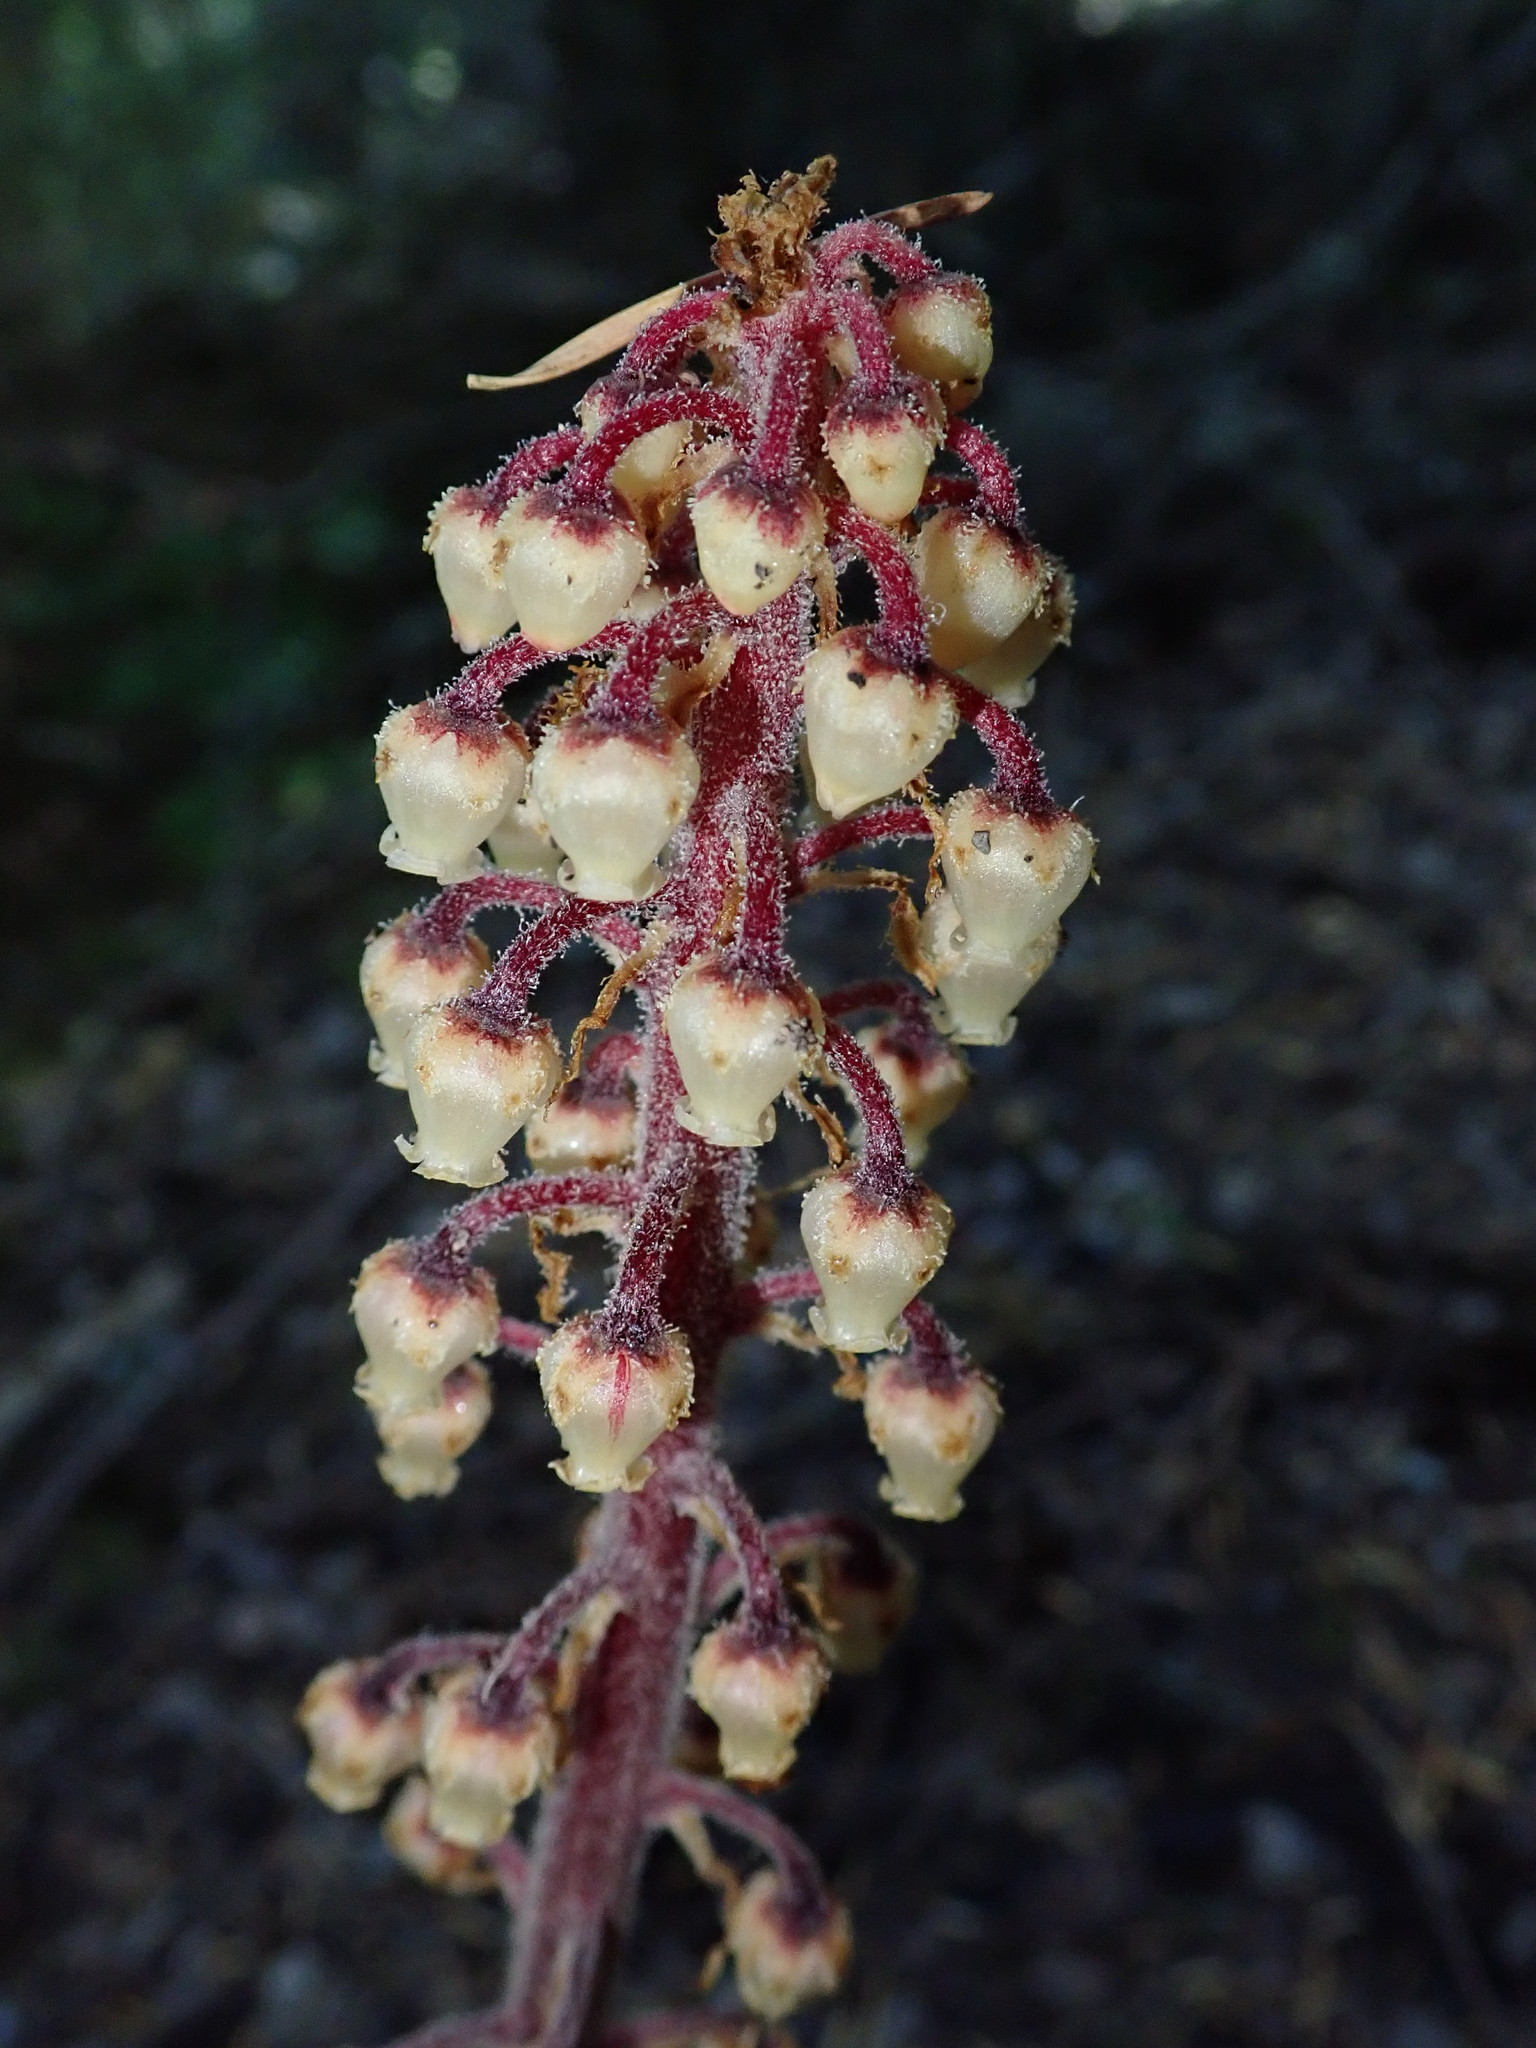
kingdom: Plantae
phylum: Tracheophyta
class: Magnoliopsida
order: Ericales
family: Ericaceae
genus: Pterospora
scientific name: Pterospora andromedea
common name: Giant bird's-nest
